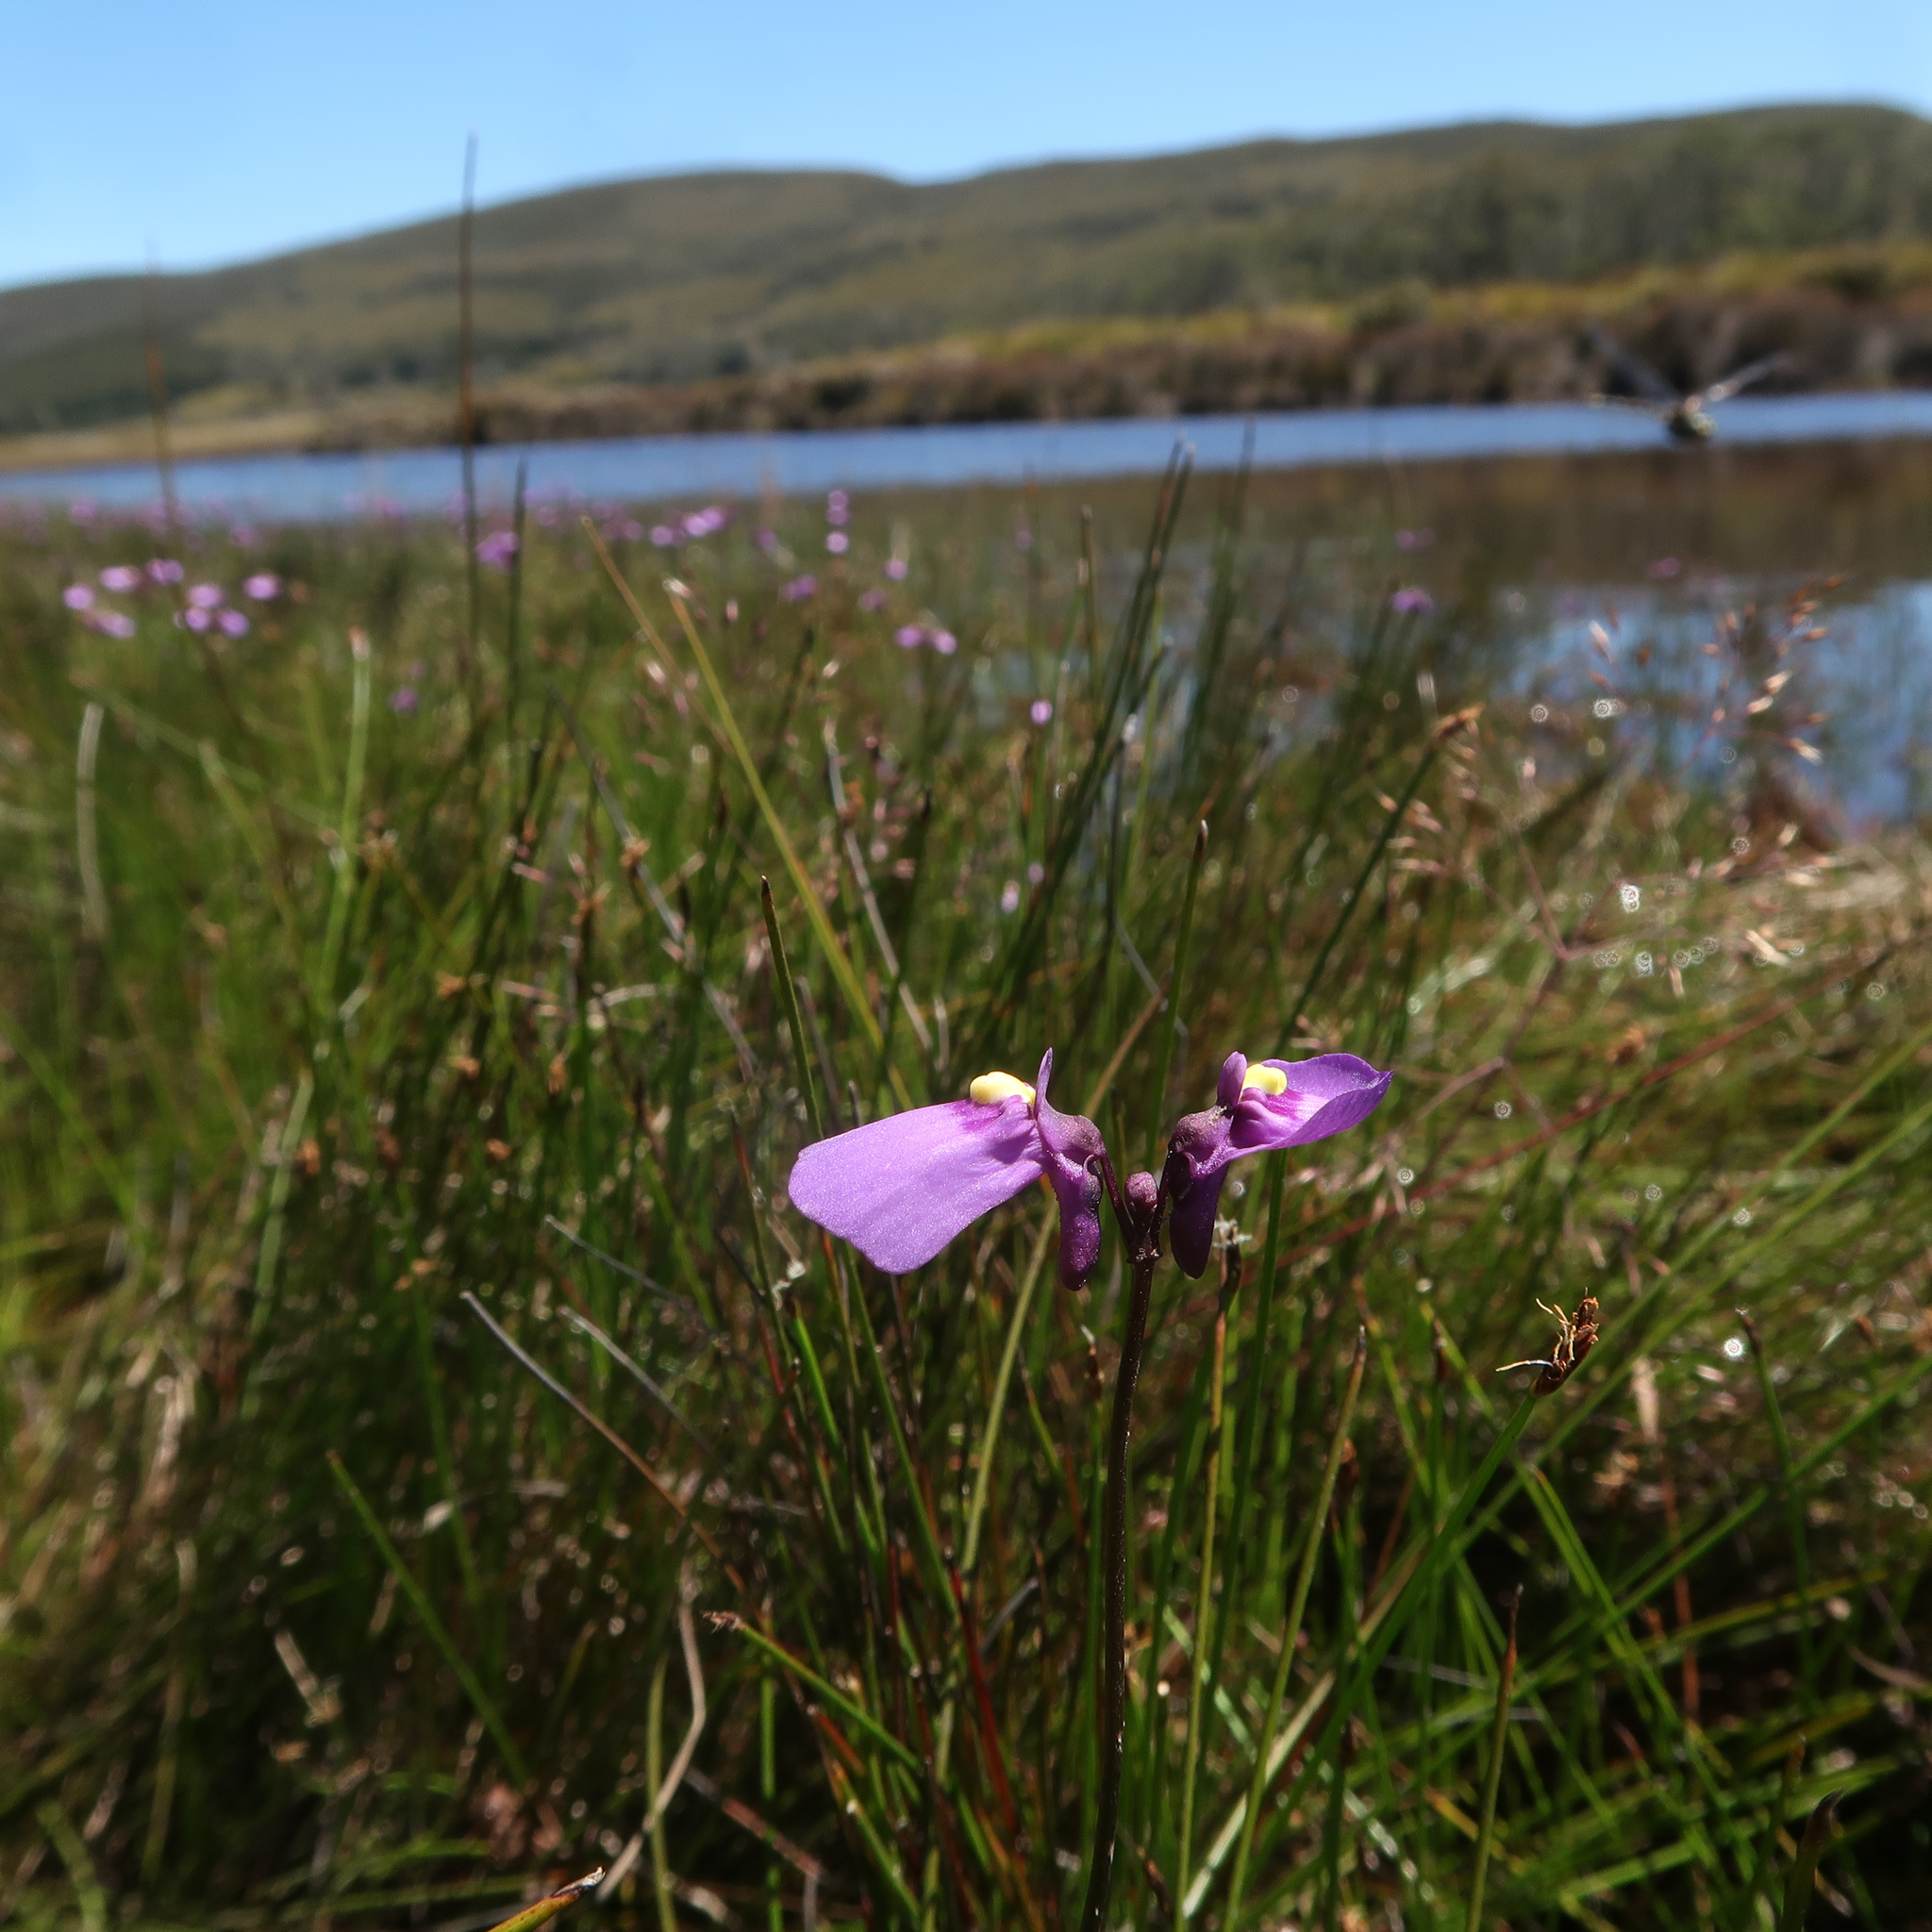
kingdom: Plantae
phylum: Tracheophyta
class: Magnoliopsida
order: Lamiales
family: Lentibulariaceae
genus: Utricularia
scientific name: Utricularia dichotoma
